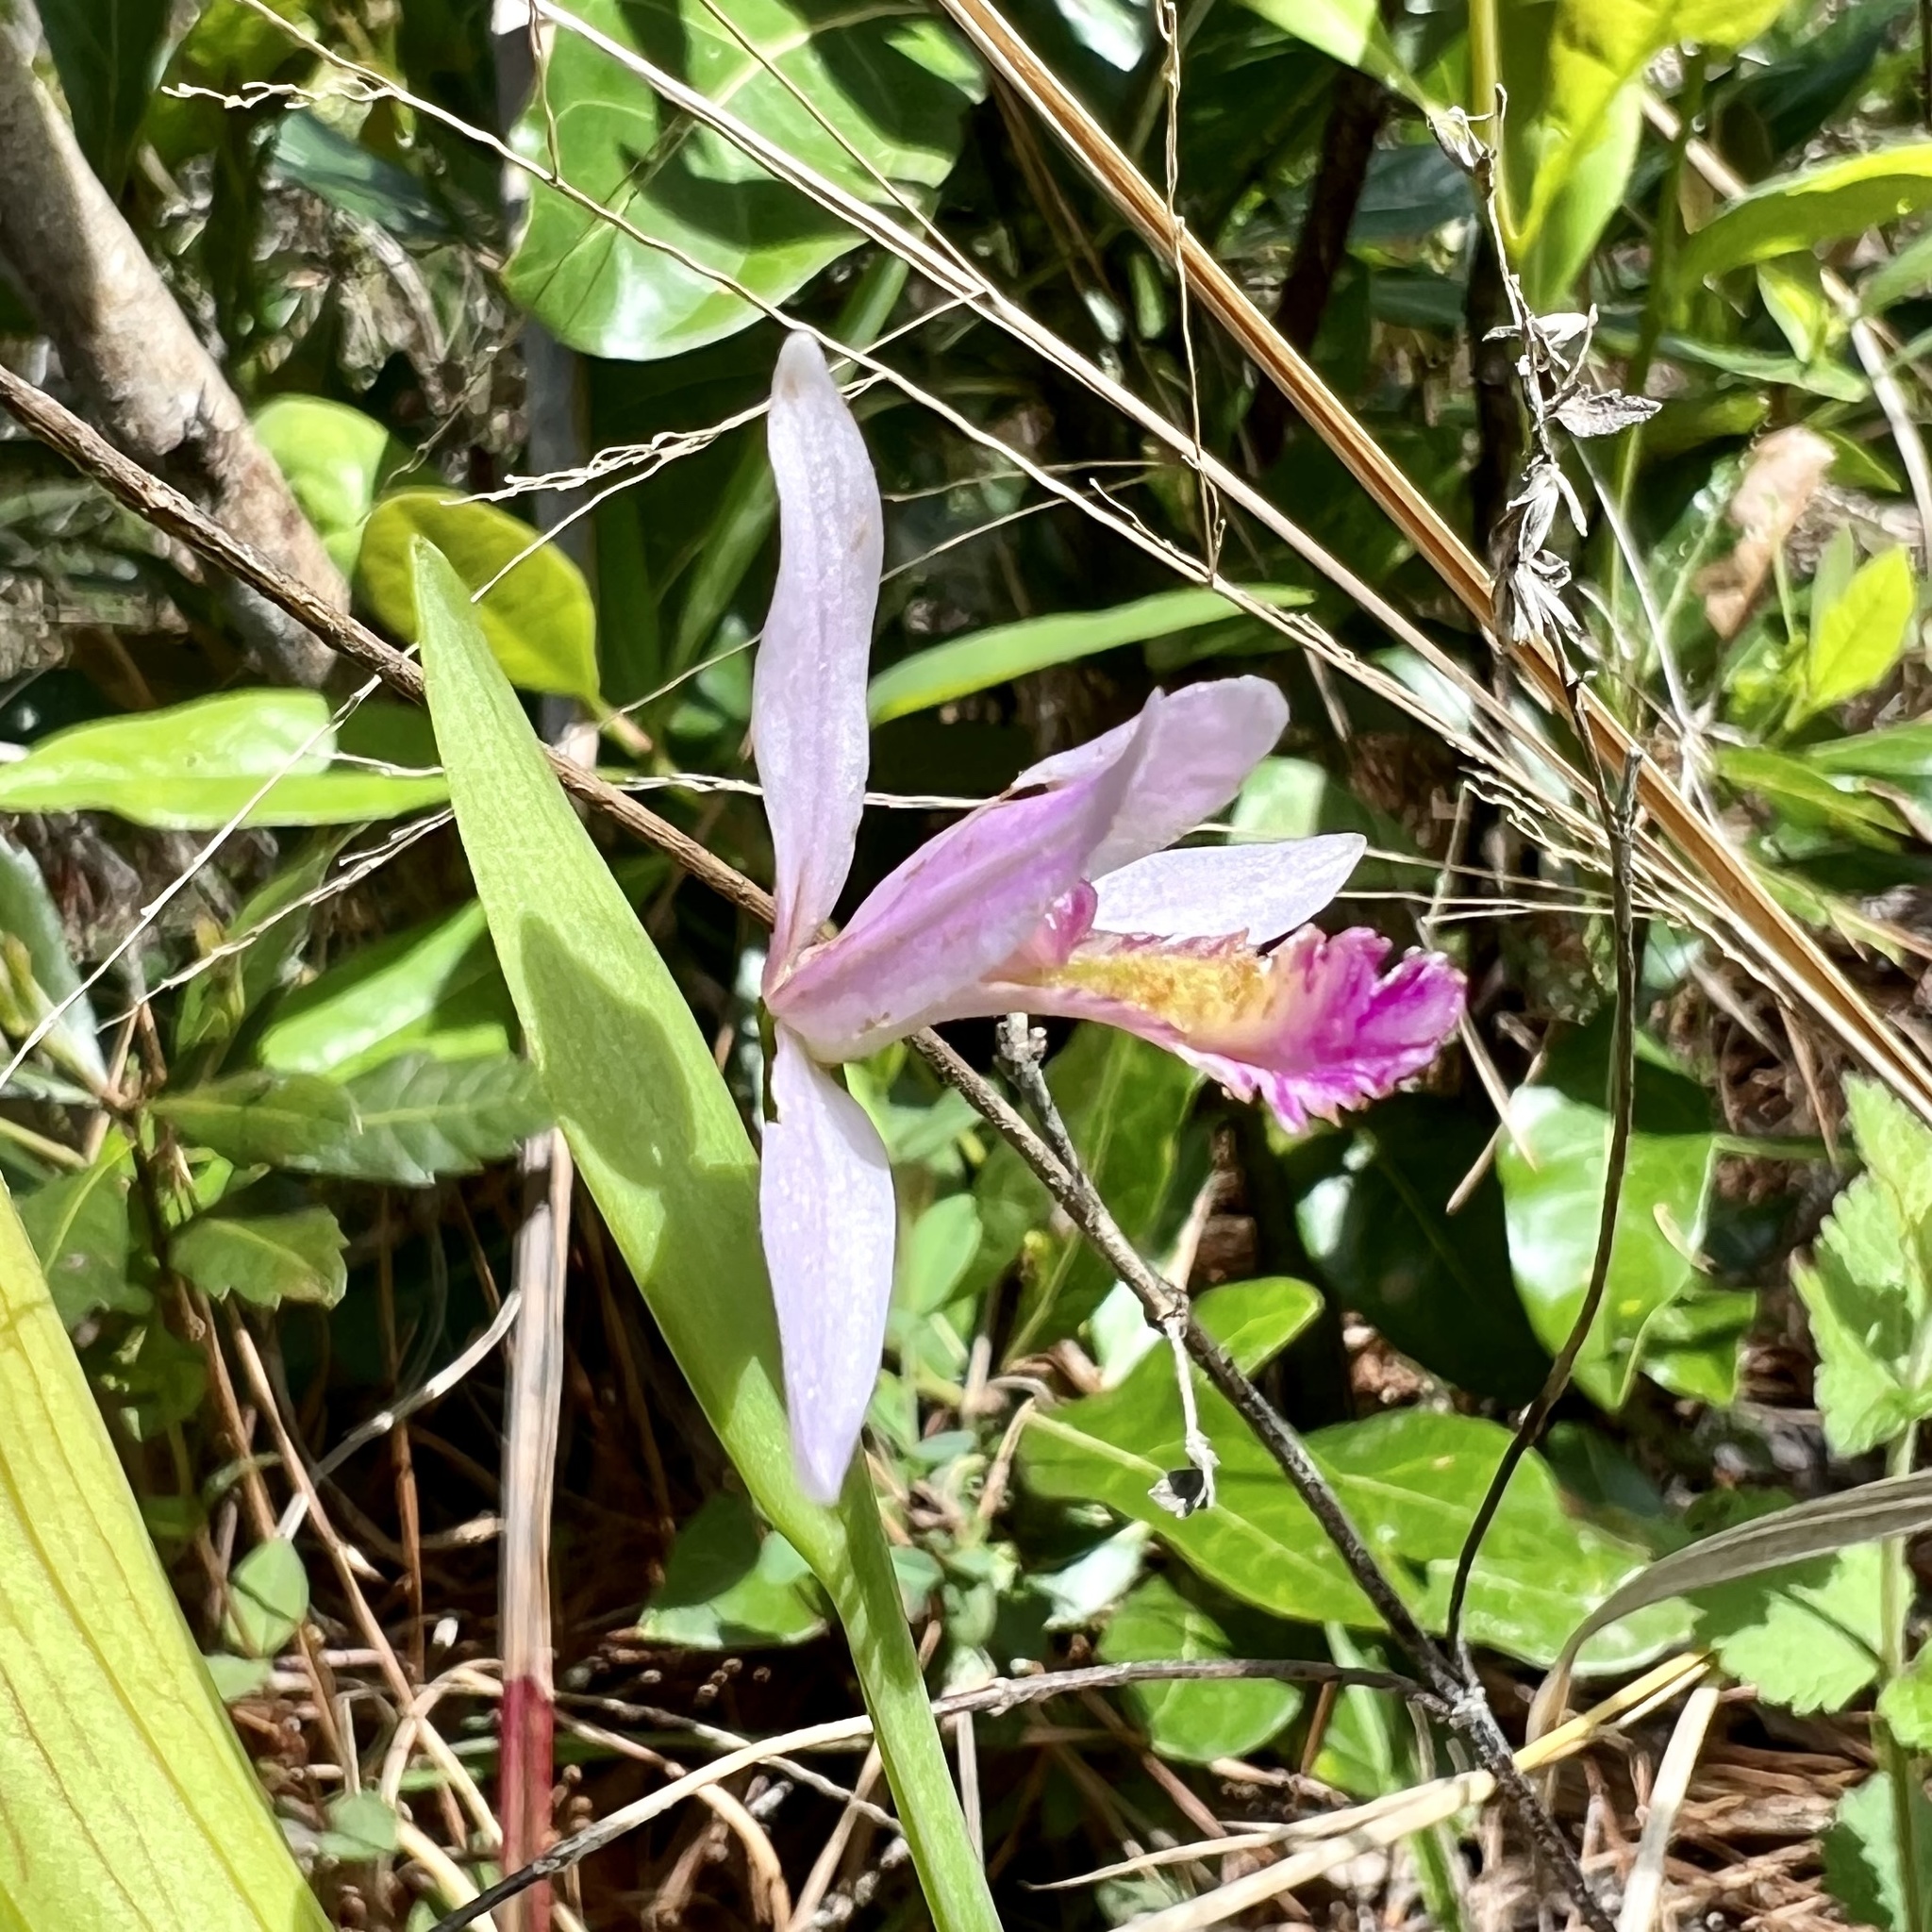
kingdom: Plantae
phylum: Tracheophyta
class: Liliopsida
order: Asparagales
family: Orchidaceae
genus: Pogonia
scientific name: Pogonia ophioglossoides
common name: Rose pogonia
